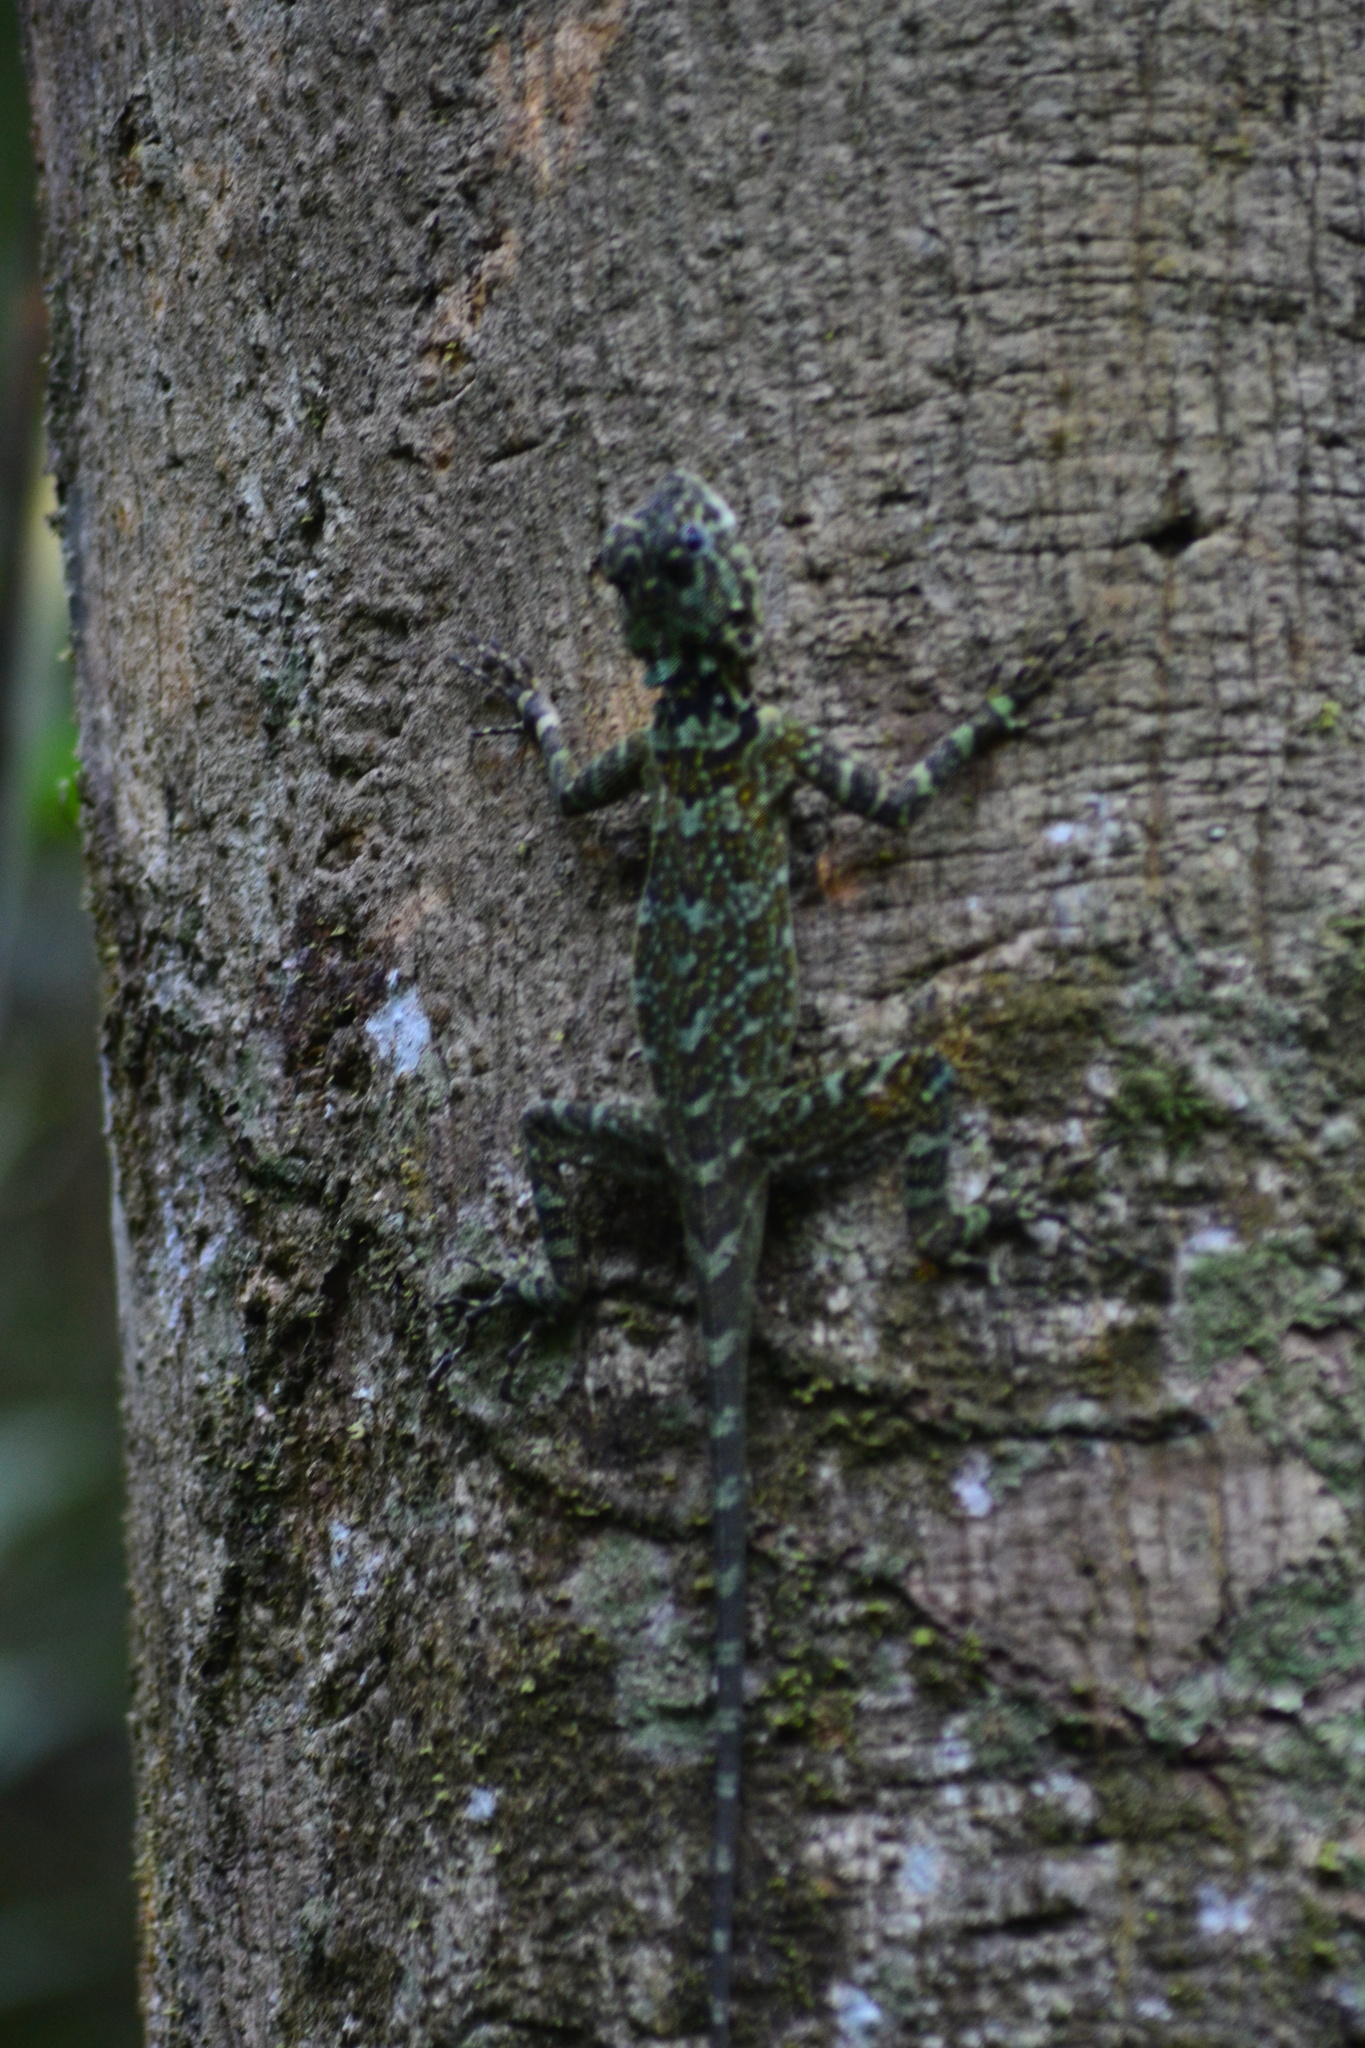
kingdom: Animalia
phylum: Chordata
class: Squamata
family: Tropiduridae
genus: Plica
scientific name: Plica plica
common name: Tree runner
